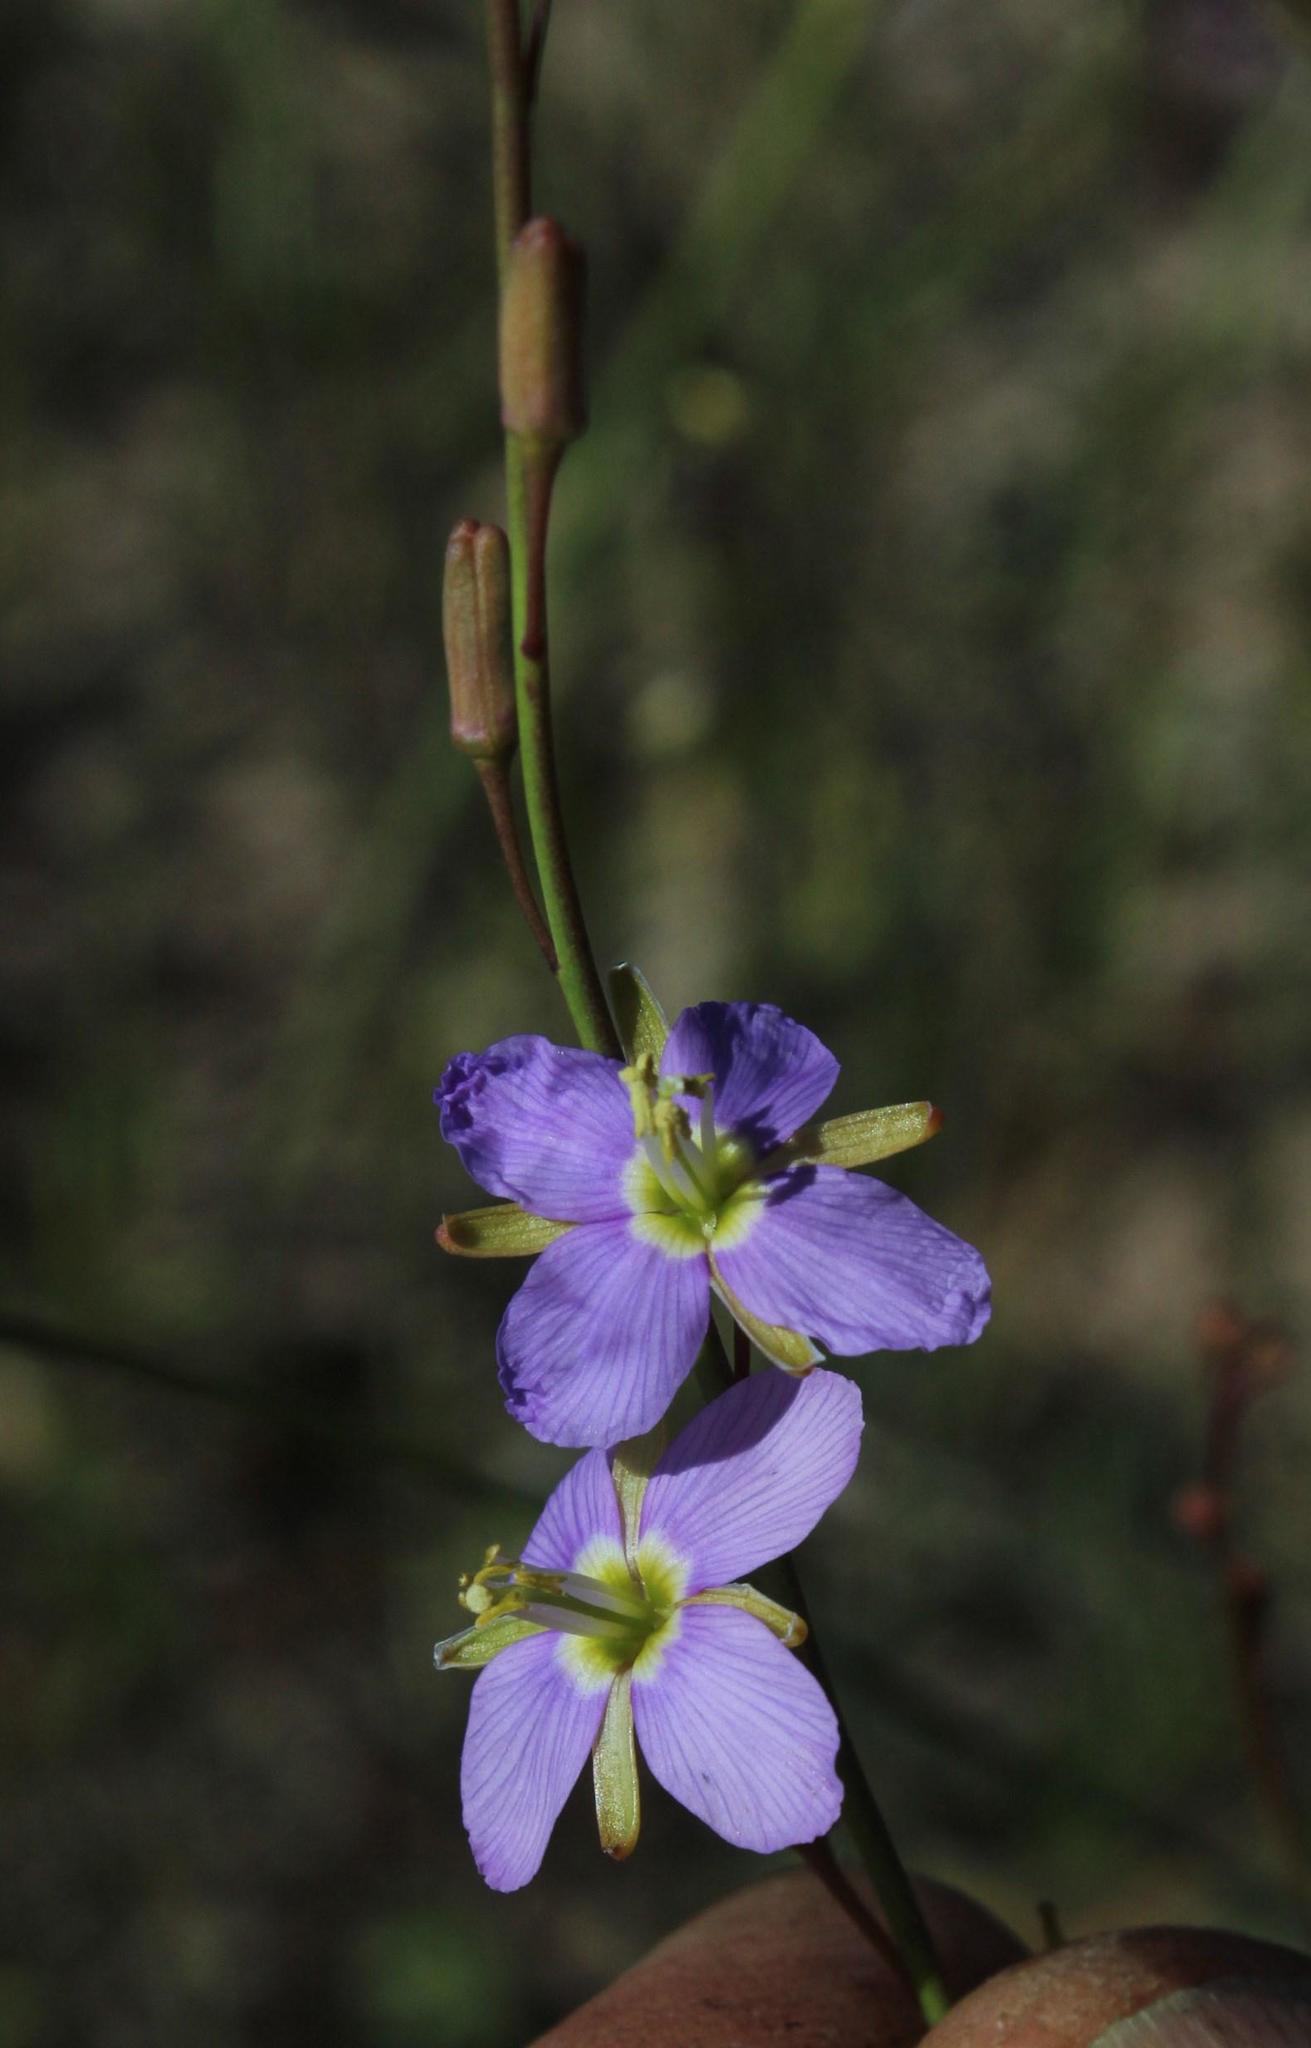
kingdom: Plantae
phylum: Tracheophyta
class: Magnoliopsida
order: Brassicales
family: Brassicaceae
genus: Heliophila
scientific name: Heliophila linoides
